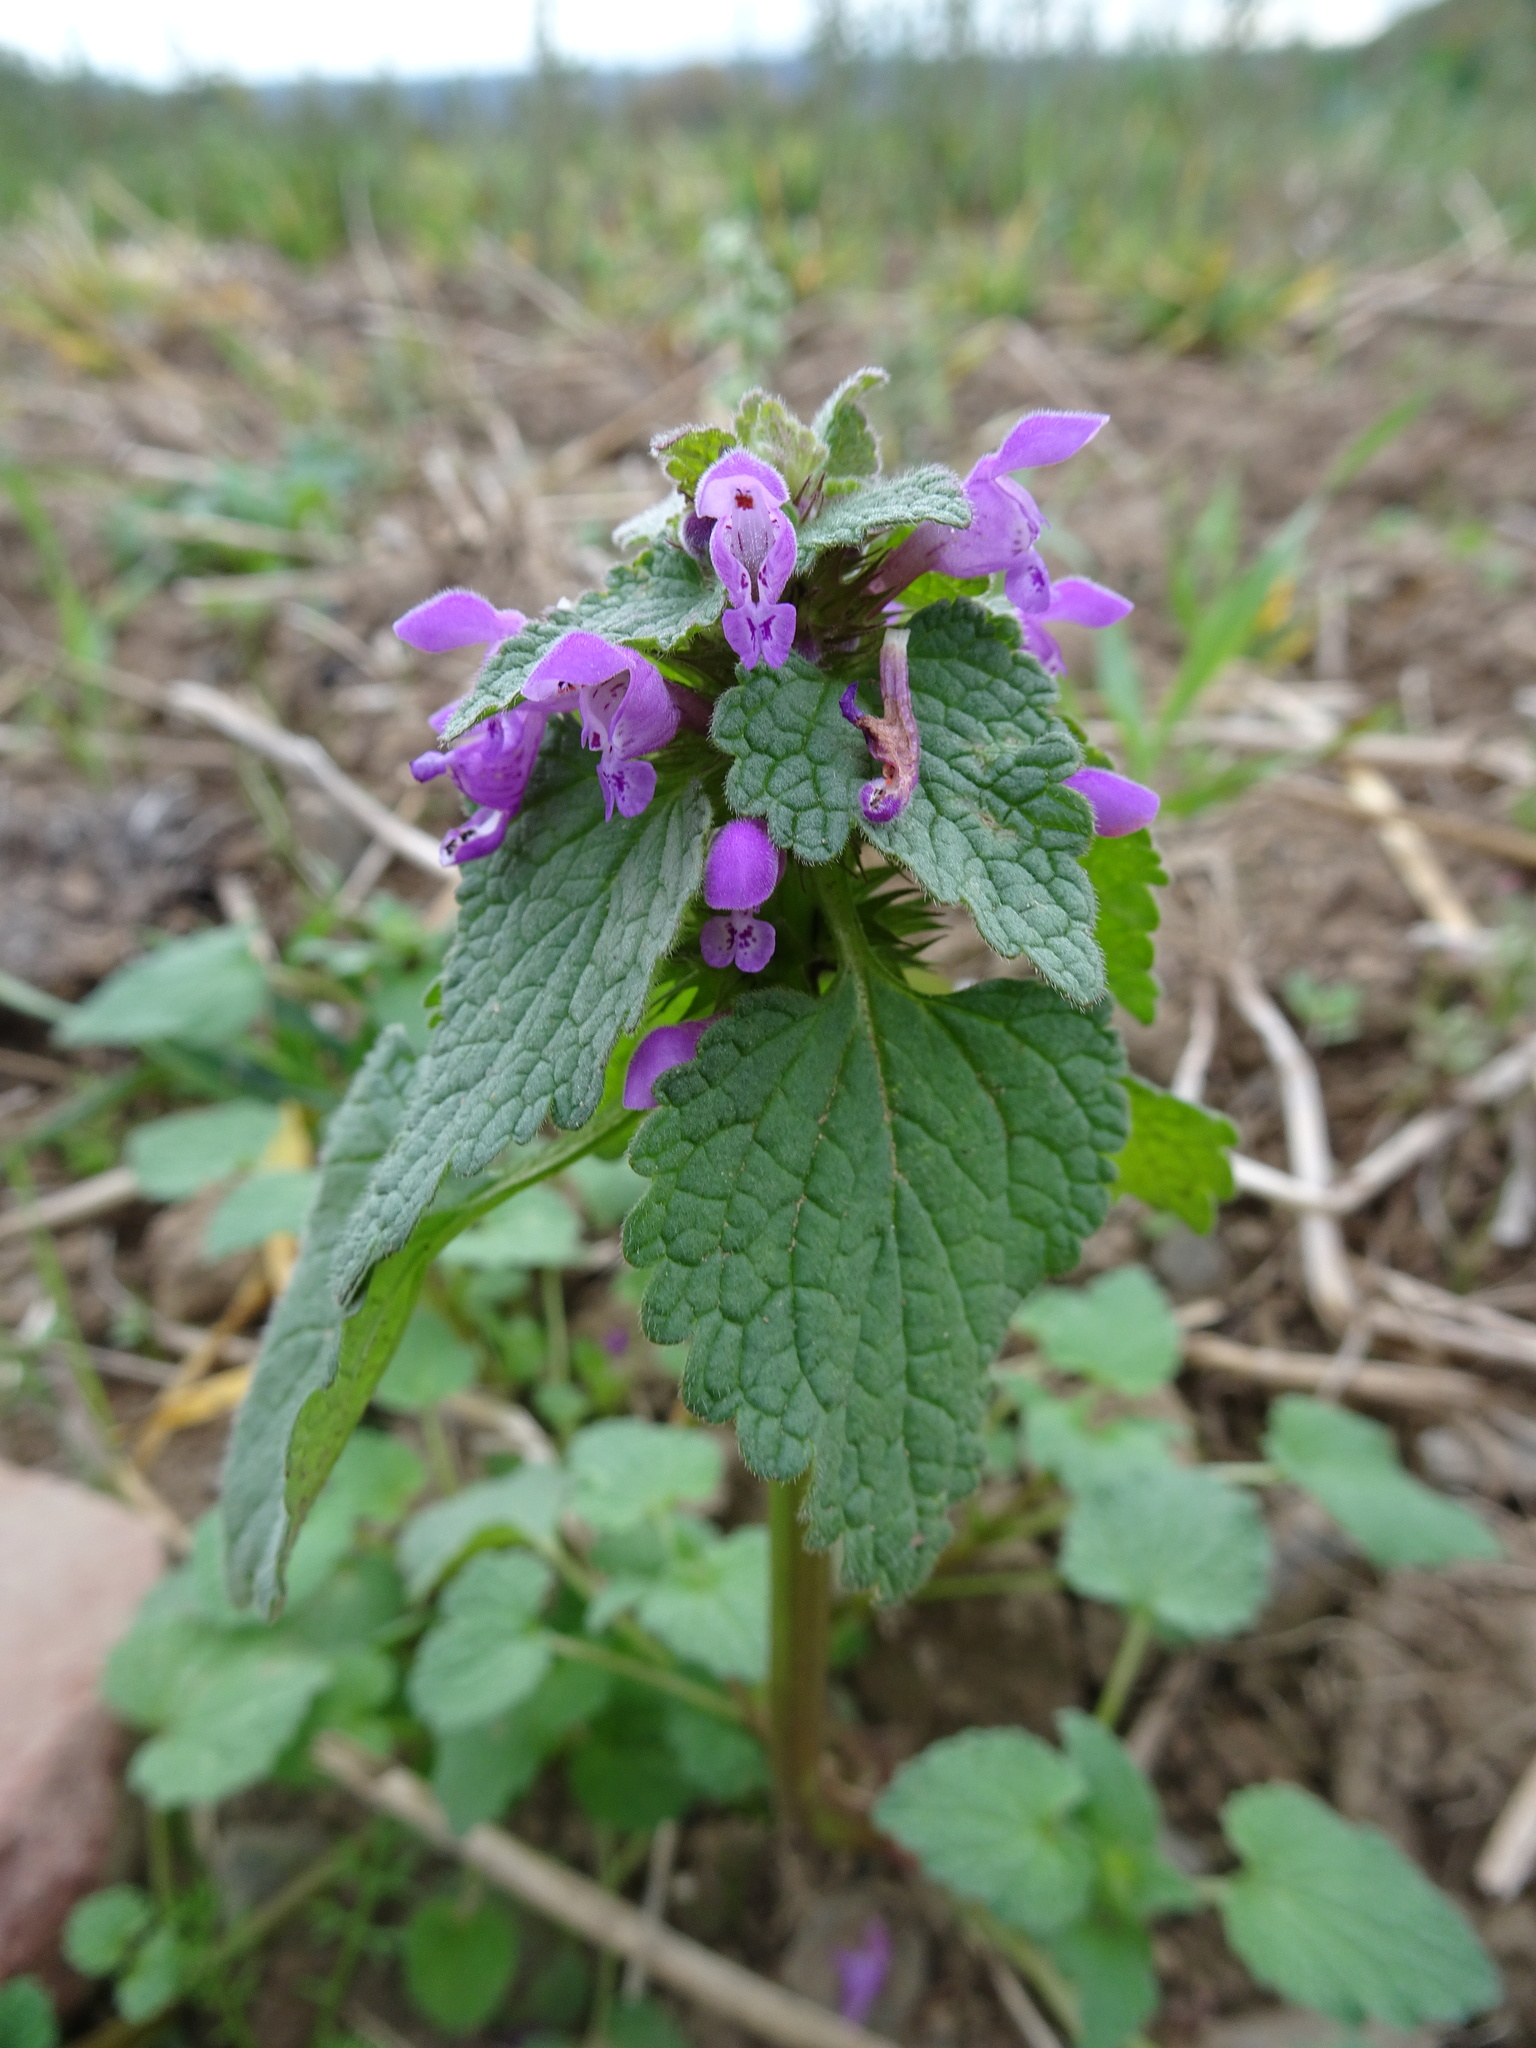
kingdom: Plantae
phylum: Tracheophyta
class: Magnoliopsida
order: Lamiales
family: Lamiaceae
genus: Lamium
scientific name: Lamium purpureum
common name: Red dead-nettle
